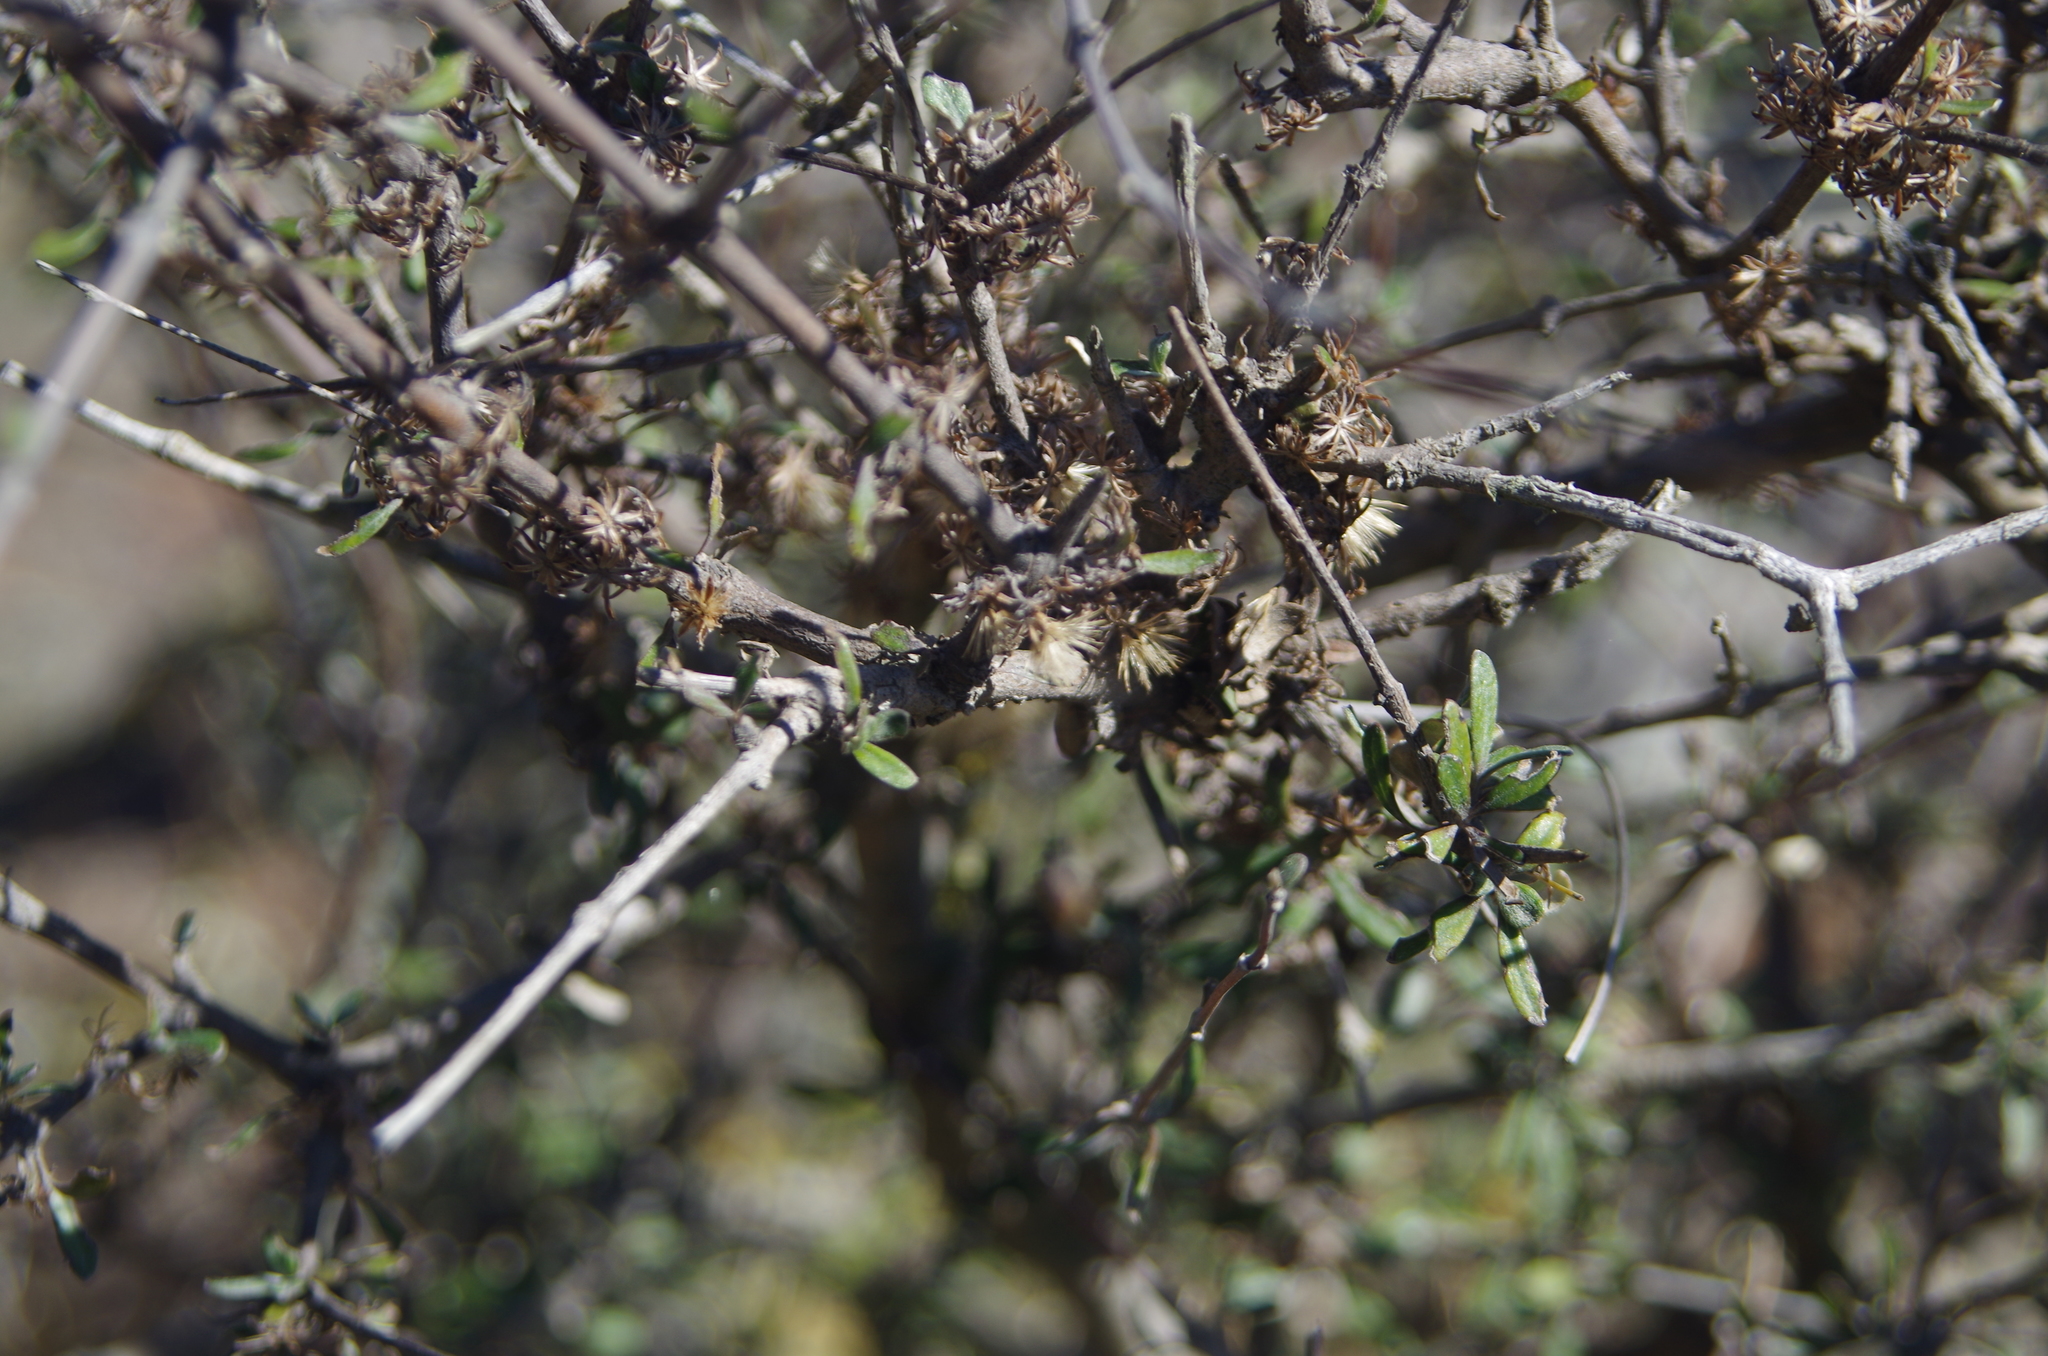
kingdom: Plantae
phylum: Tracheophyta
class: Magnoliopsida
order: Asterales
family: Asteraceae
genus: Olearia
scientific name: Olearia adenocarpa
